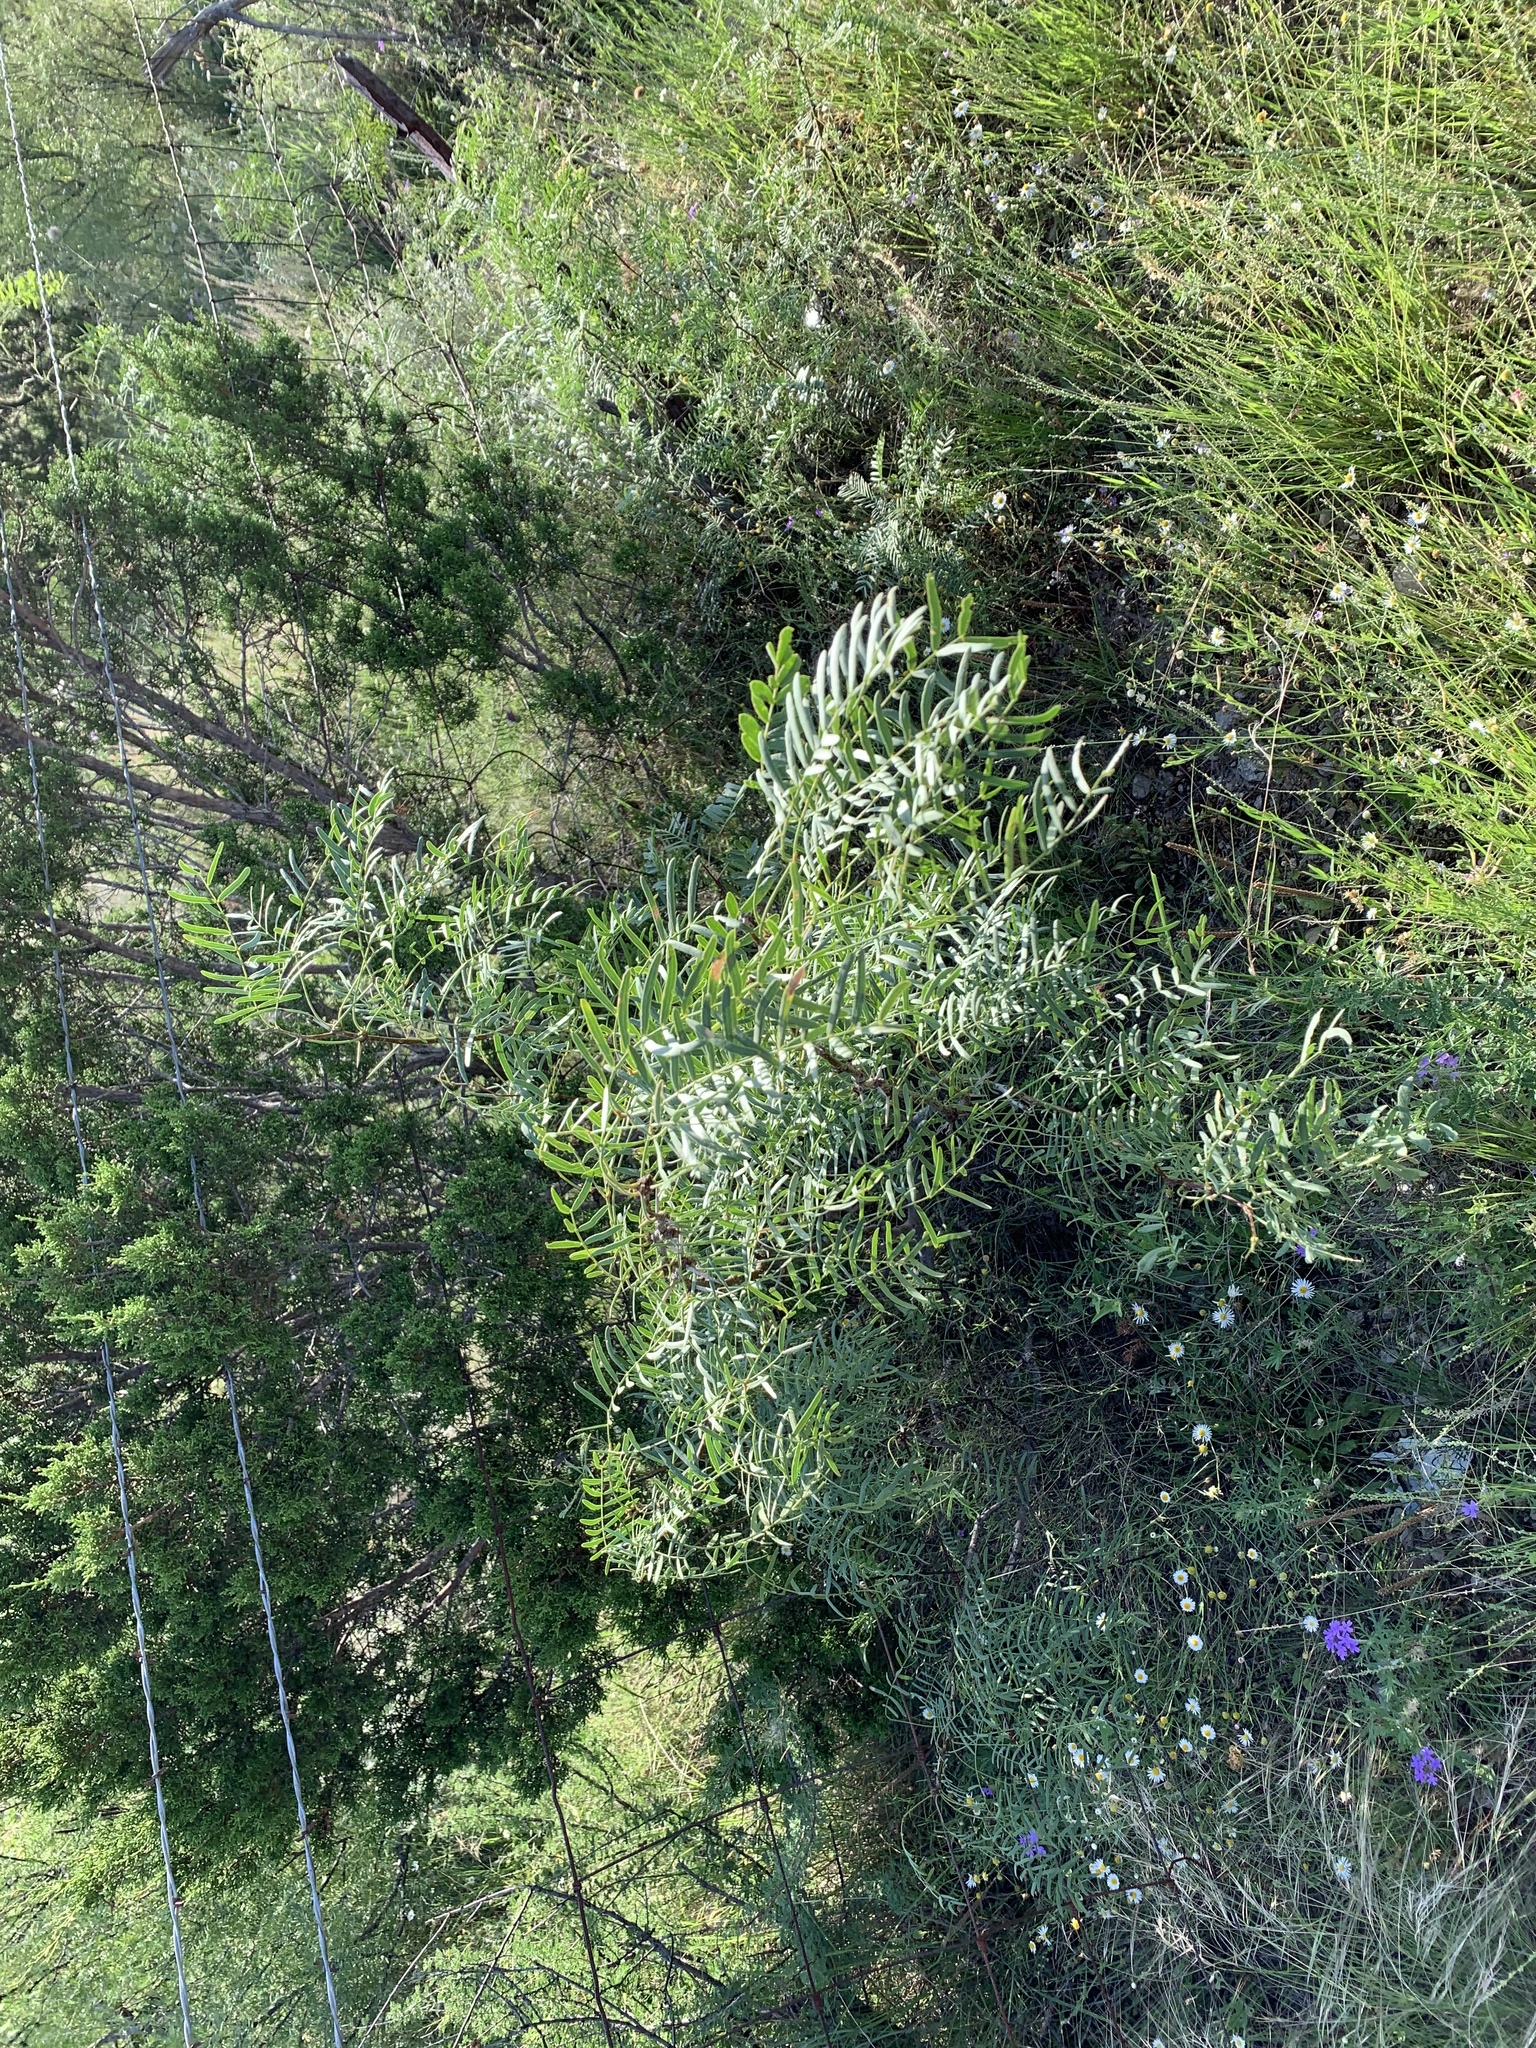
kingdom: Plantae
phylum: Tracheophyta
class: Magnoliopsida
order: Fabales
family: Fabaceae
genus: Prosopis
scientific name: Prosopis glandulosa
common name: Honey mesquite
